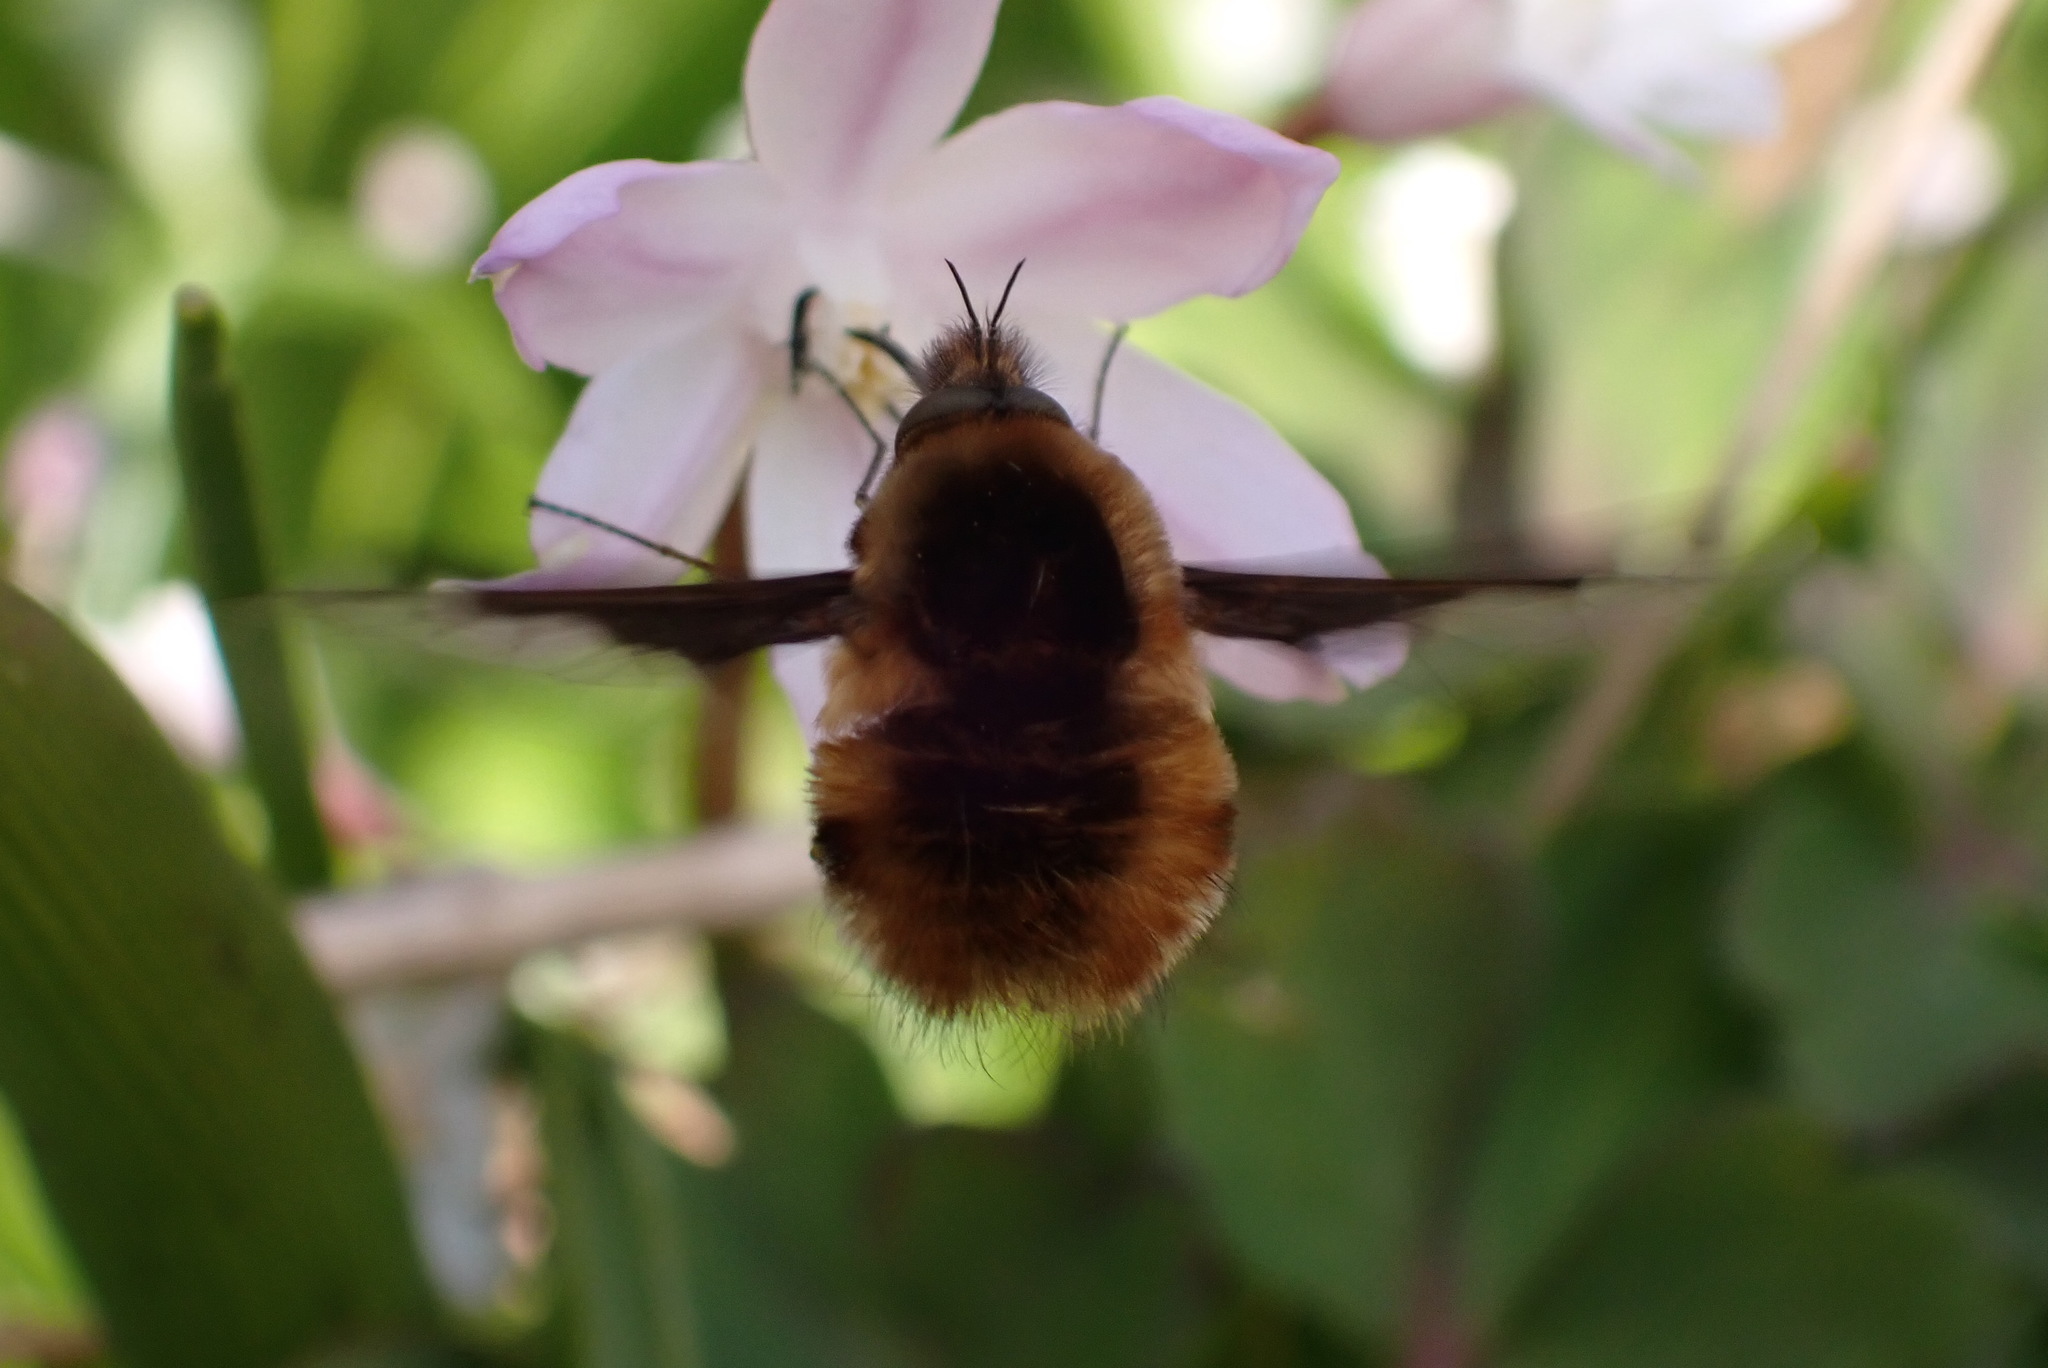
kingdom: Animalia
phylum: Arthropoda
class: Insecta
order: Diptera
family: Bombyliidae
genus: Bombylius
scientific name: Bombylius major
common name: Bee fly
